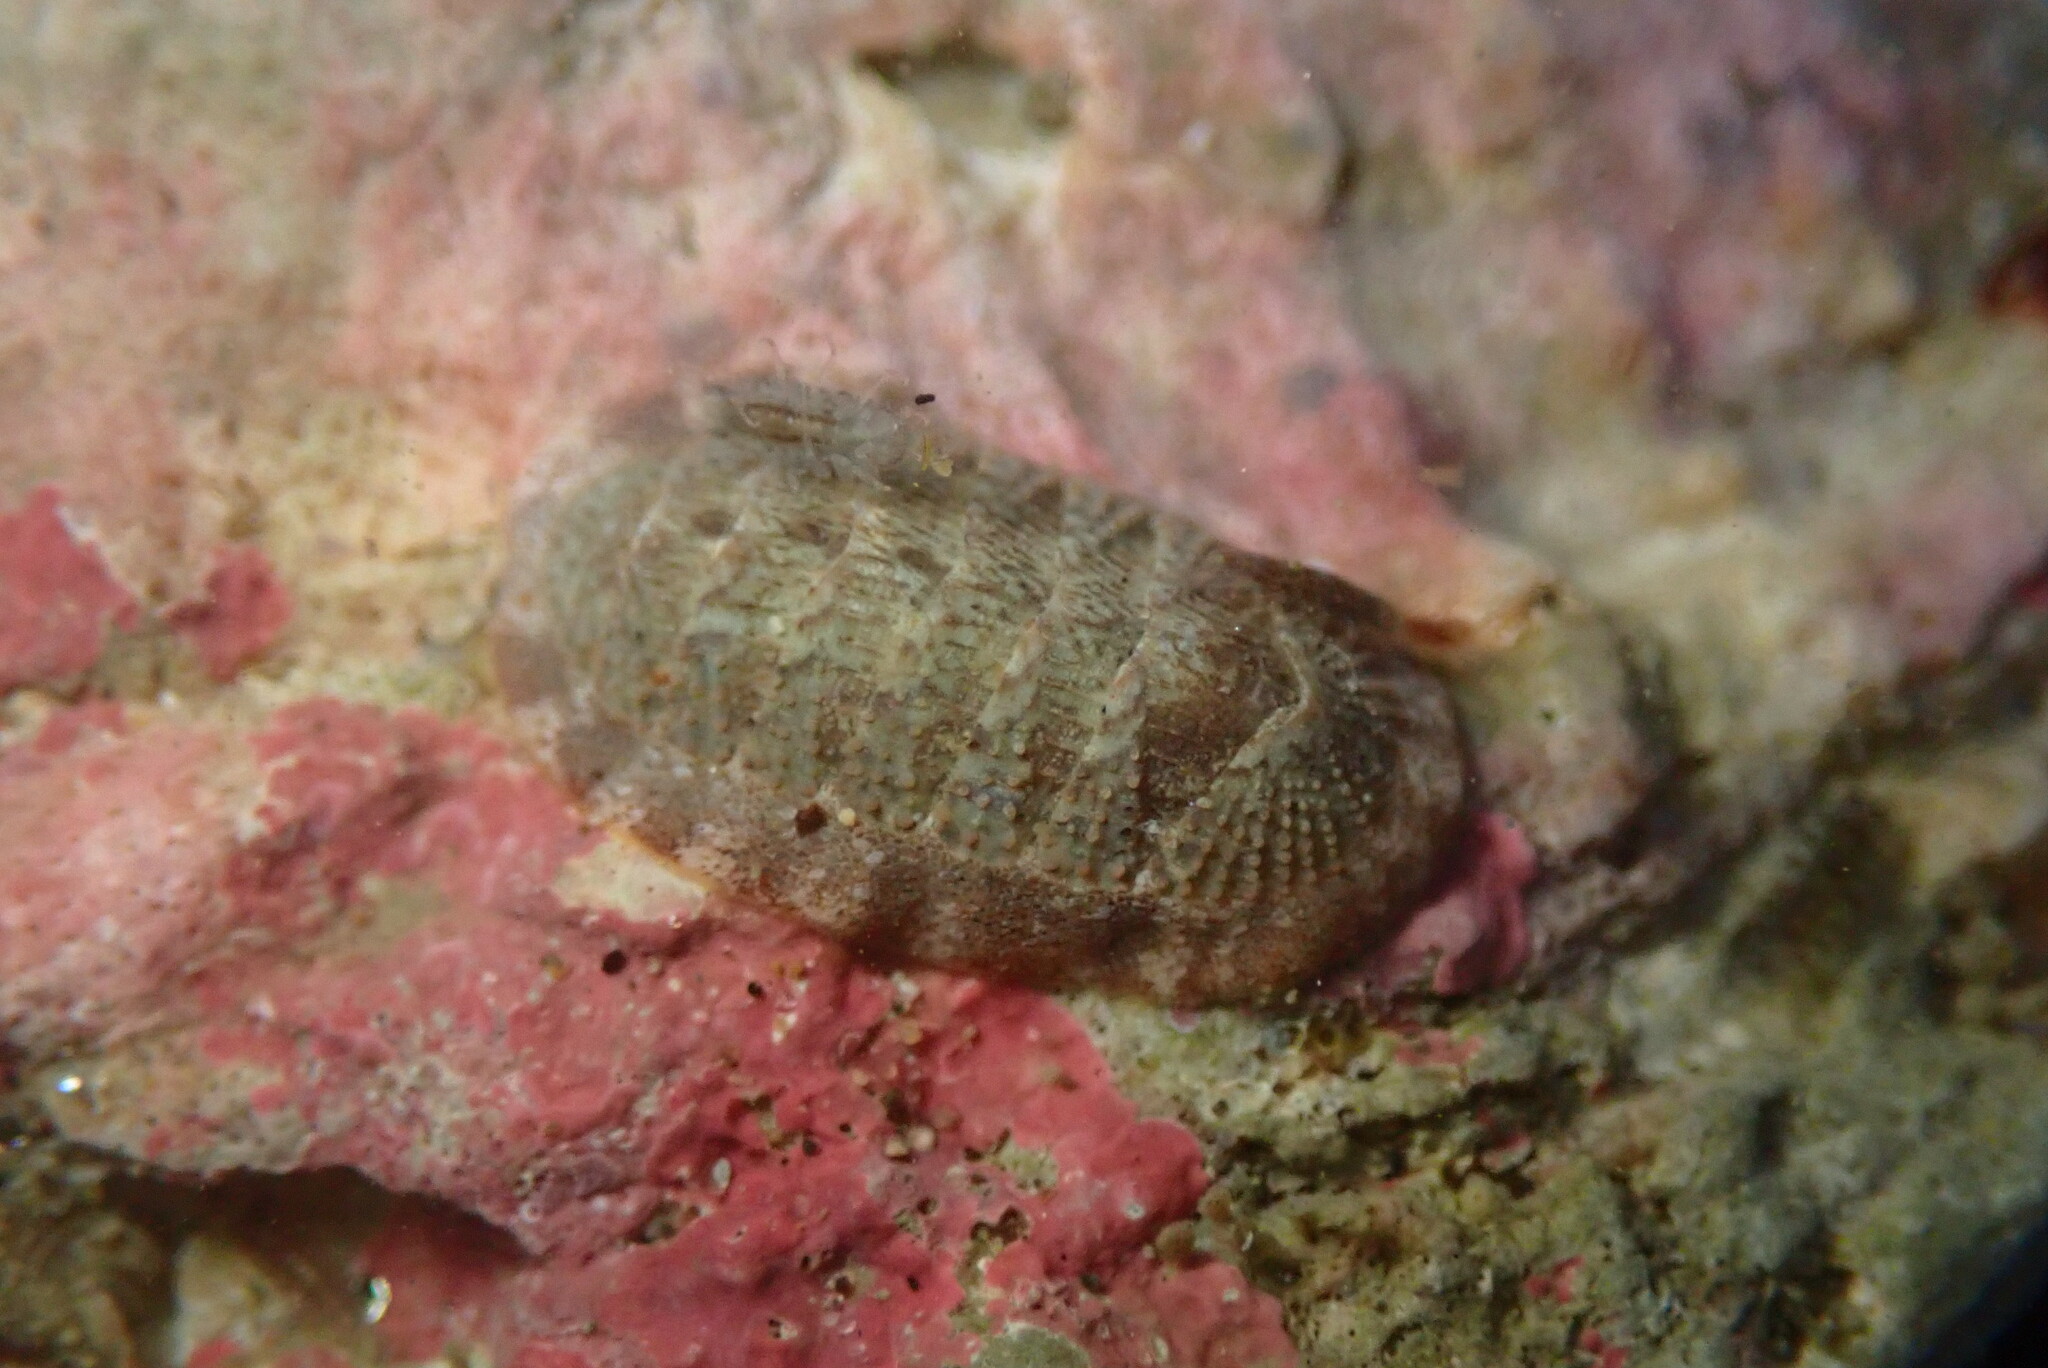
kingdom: Animalia
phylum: Mollusca
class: Polyplacophora
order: Chitonida
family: Ischnochitonidae
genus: Lepidozona
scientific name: Lepidozona cooperi
